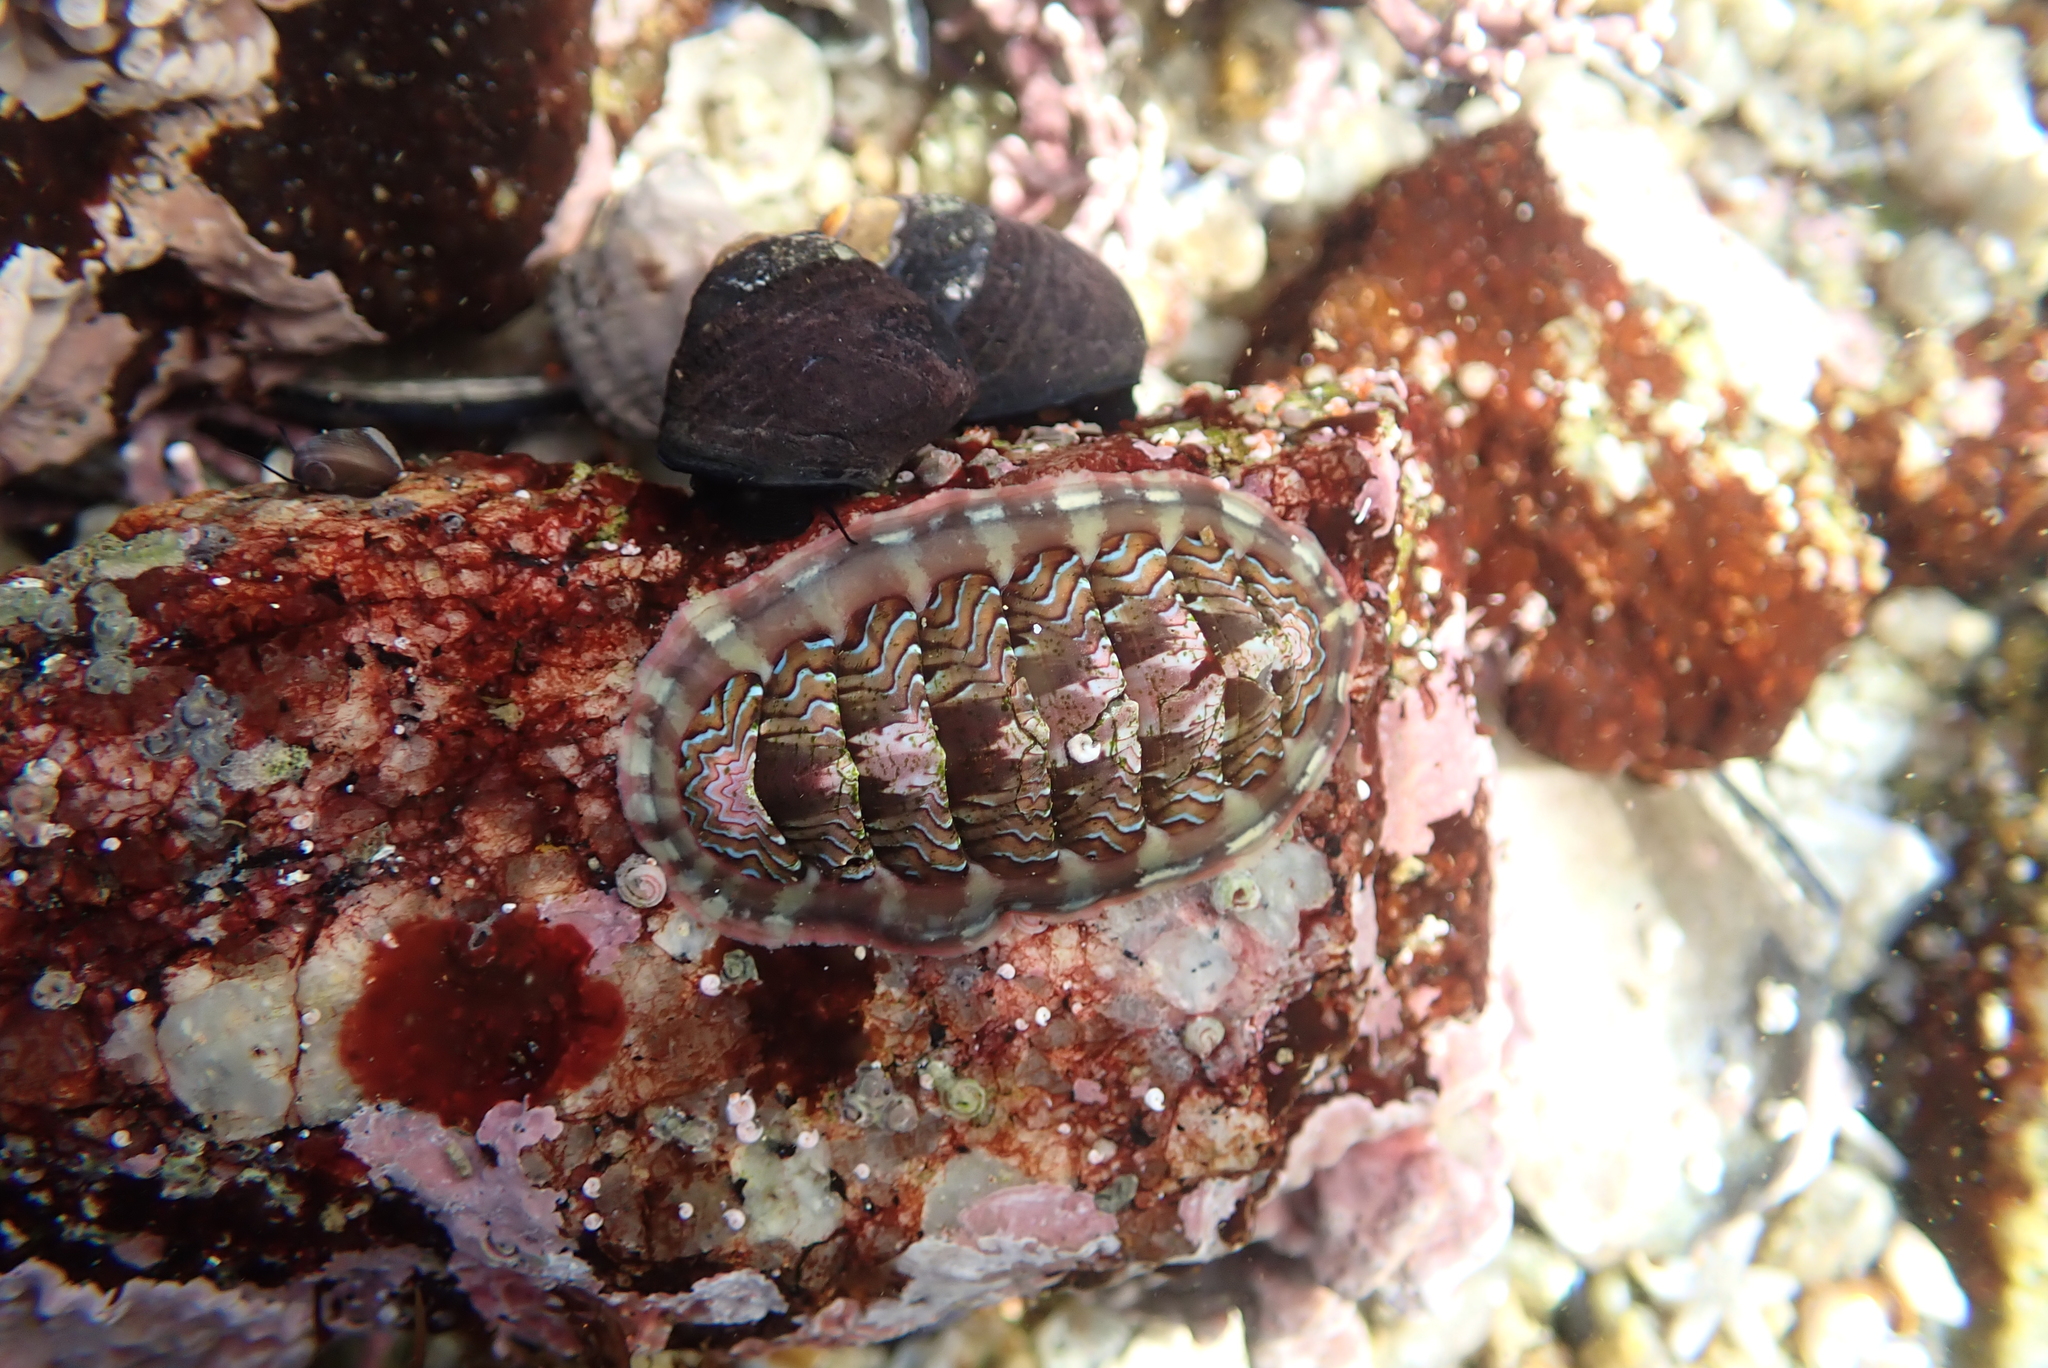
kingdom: Animalia
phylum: Mollusca
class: Polyplacophora
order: Chitonida
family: Tonicellidae
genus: Tonicella
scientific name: Tonicella lokii
